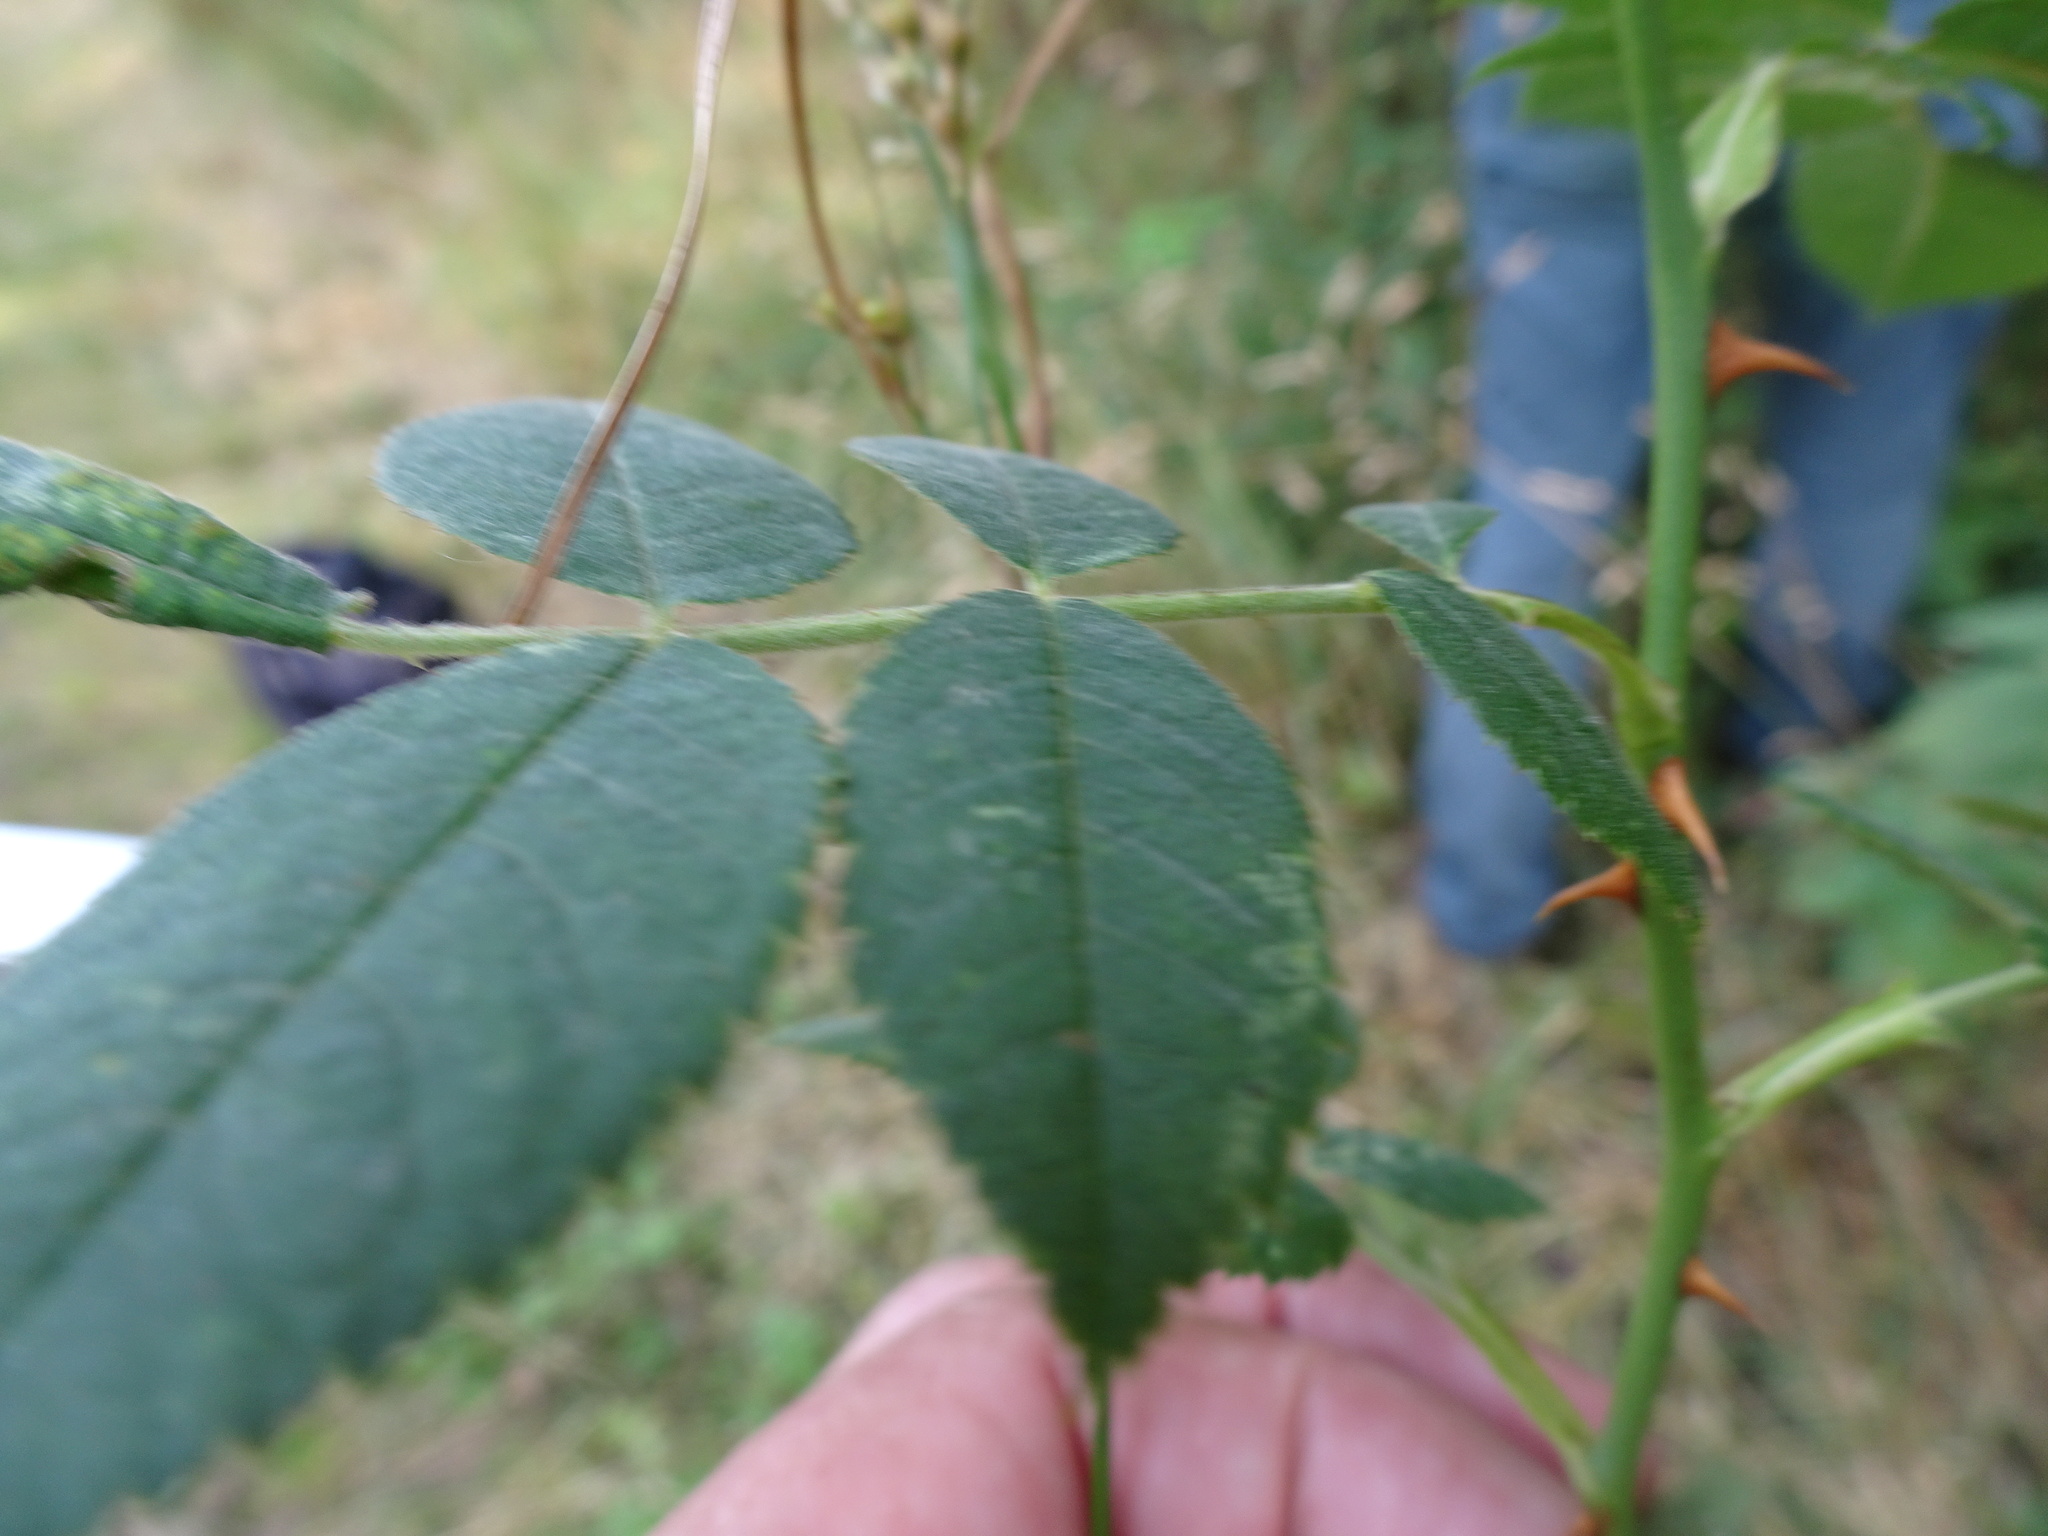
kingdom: Plantae
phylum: Tracheophyta
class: Magnoliopsida
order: Rosales
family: Rosaceae
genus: Rosa
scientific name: Rosa tomentosa
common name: Downy rose
